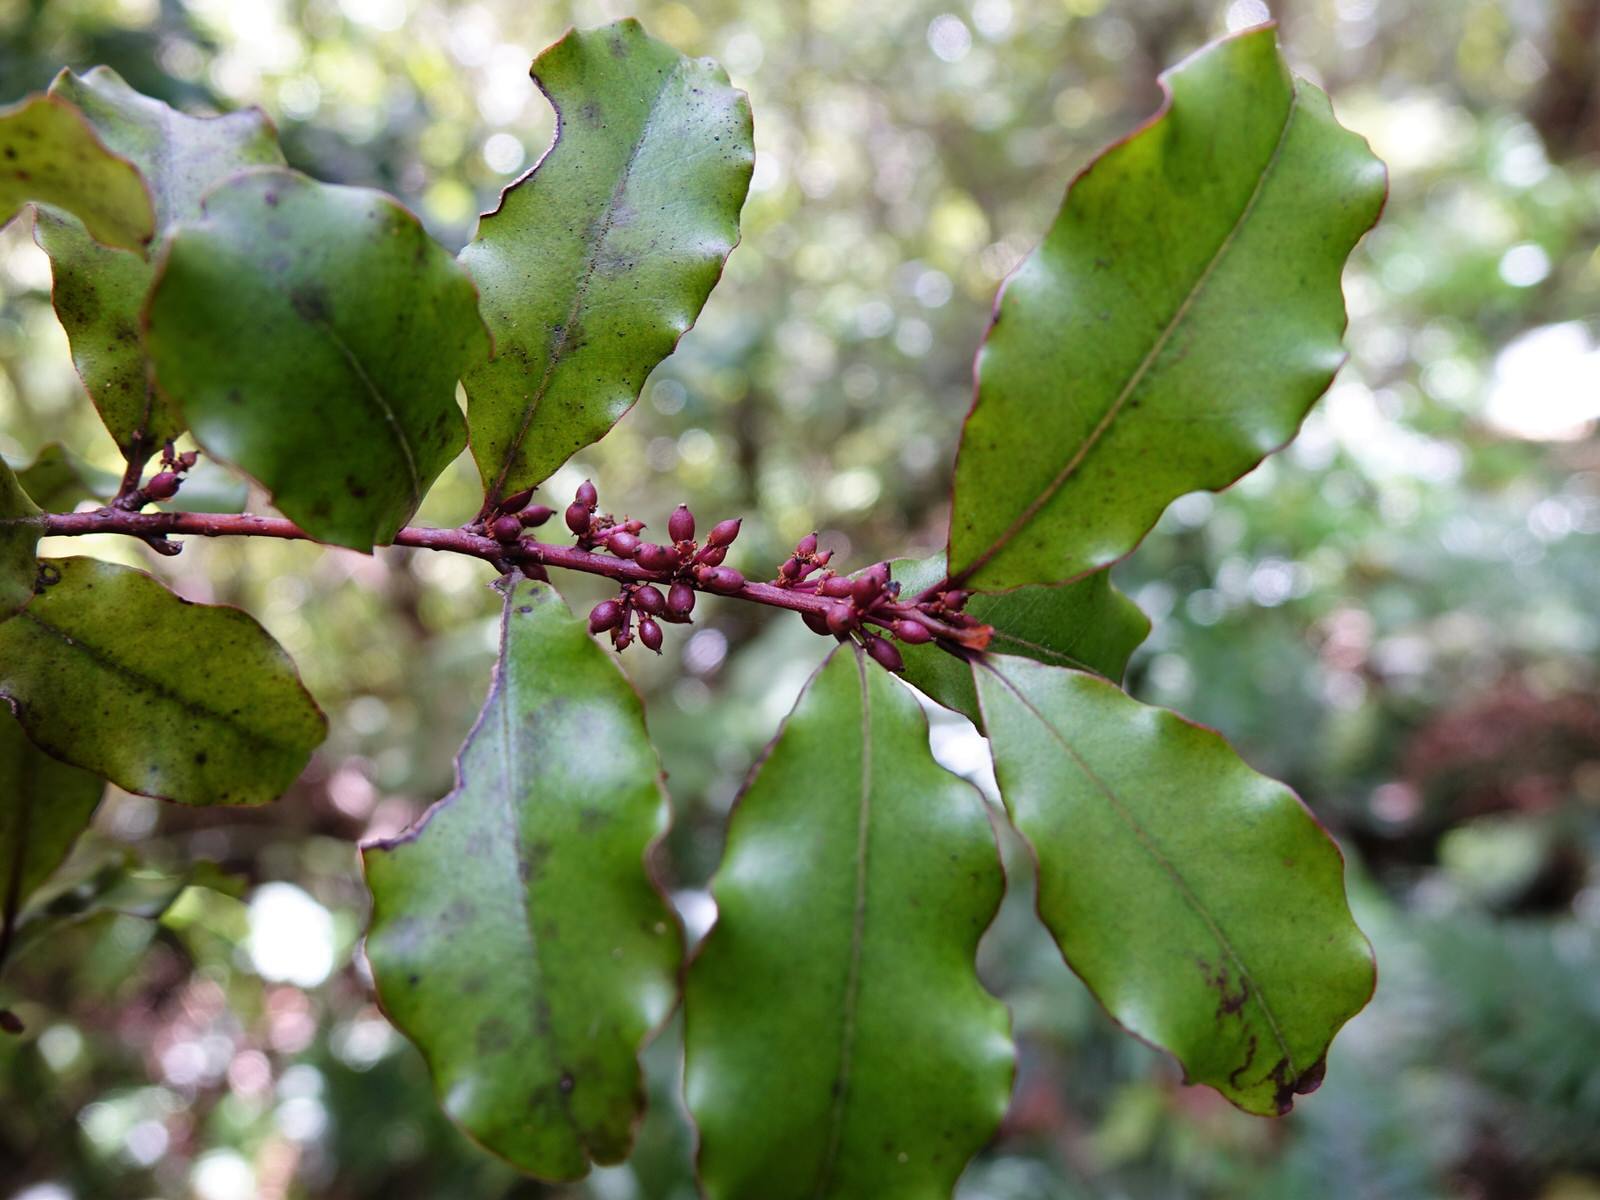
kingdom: Plantae
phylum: Tracheophyta
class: Magnoliopsida
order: Ericales
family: Primulaceae
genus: Myrsine
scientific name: Myrsine australis
